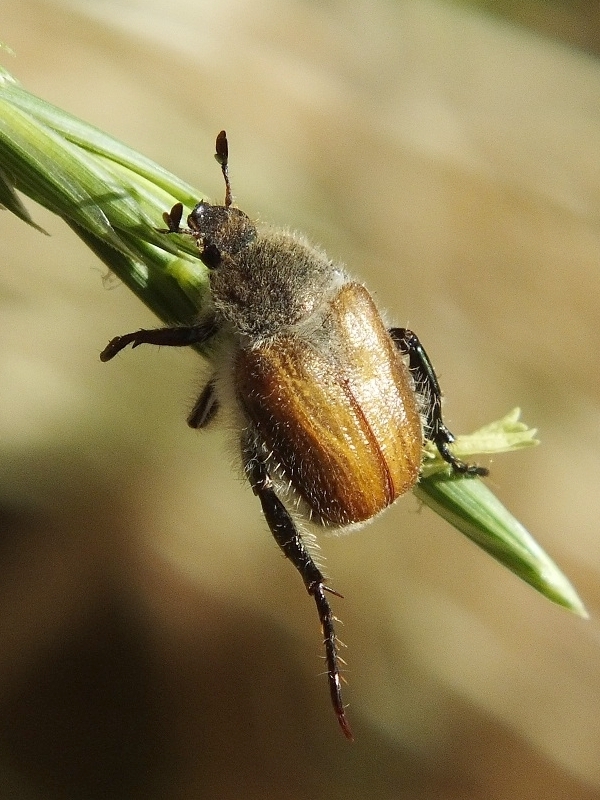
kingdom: Animalia
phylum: Arthropoda
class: Insecta
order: Coleoptera
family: Scarabaeidae
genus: Chaetopteroplia
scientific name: Chaetopteroplia segetum
